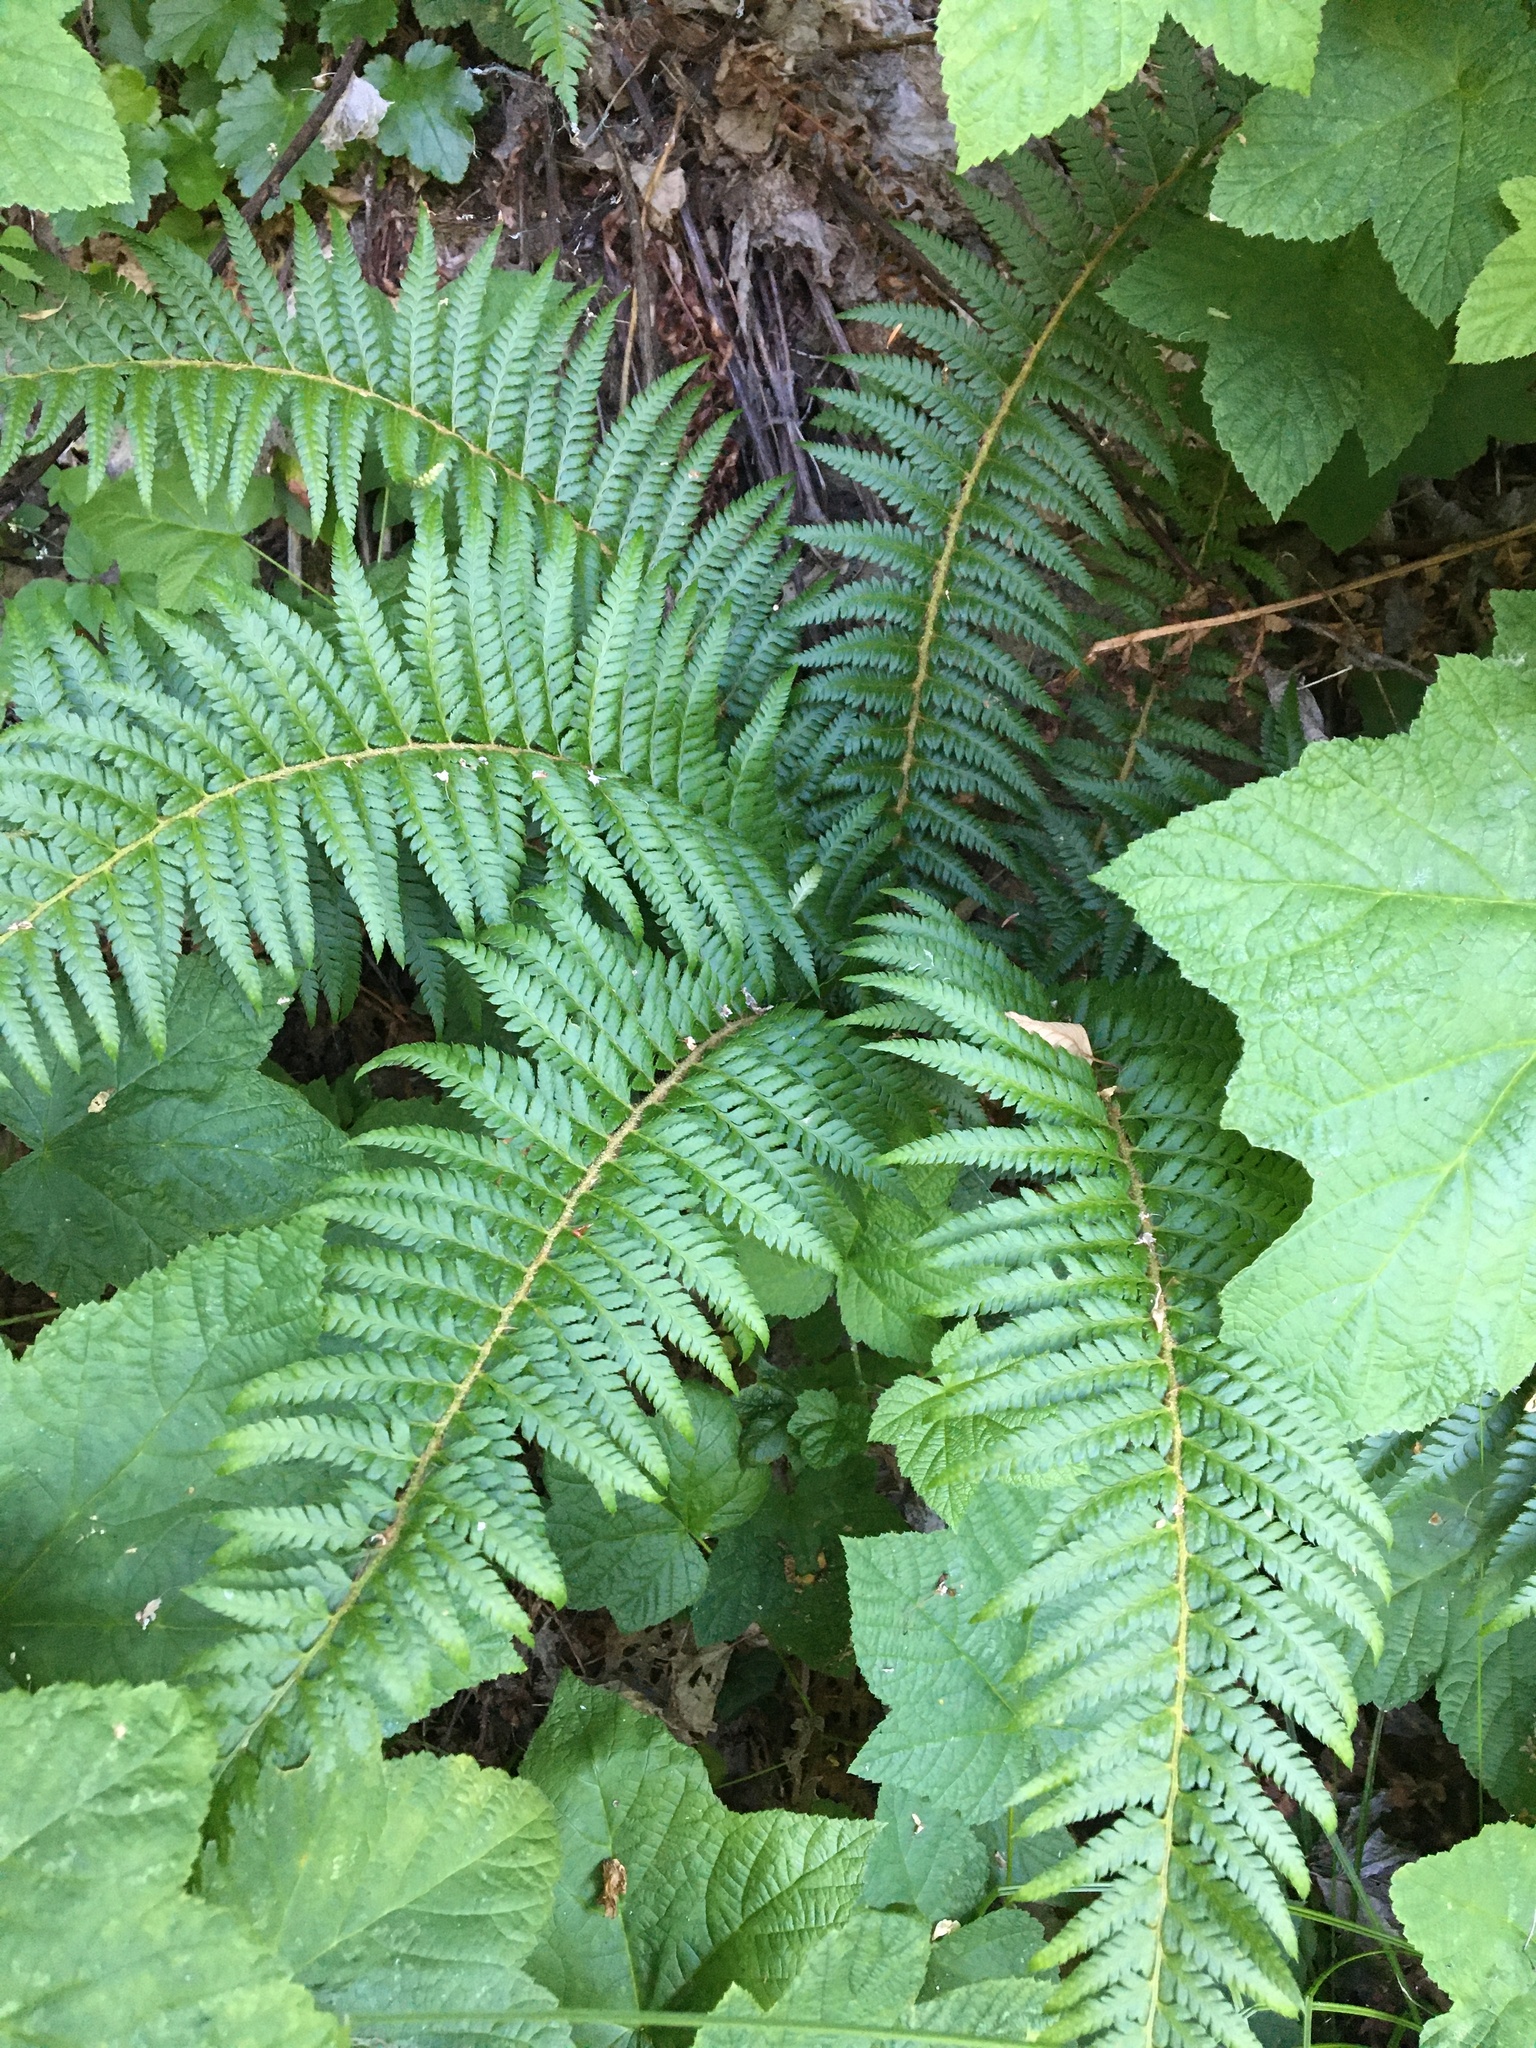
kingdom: Plantae
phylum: Tracheophyta
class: Polypodiopsida
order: Polypodiales
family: Dryopteridaceae
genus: Polystichum
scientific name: Polystichum andersonii
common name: Anderson's holly fern
